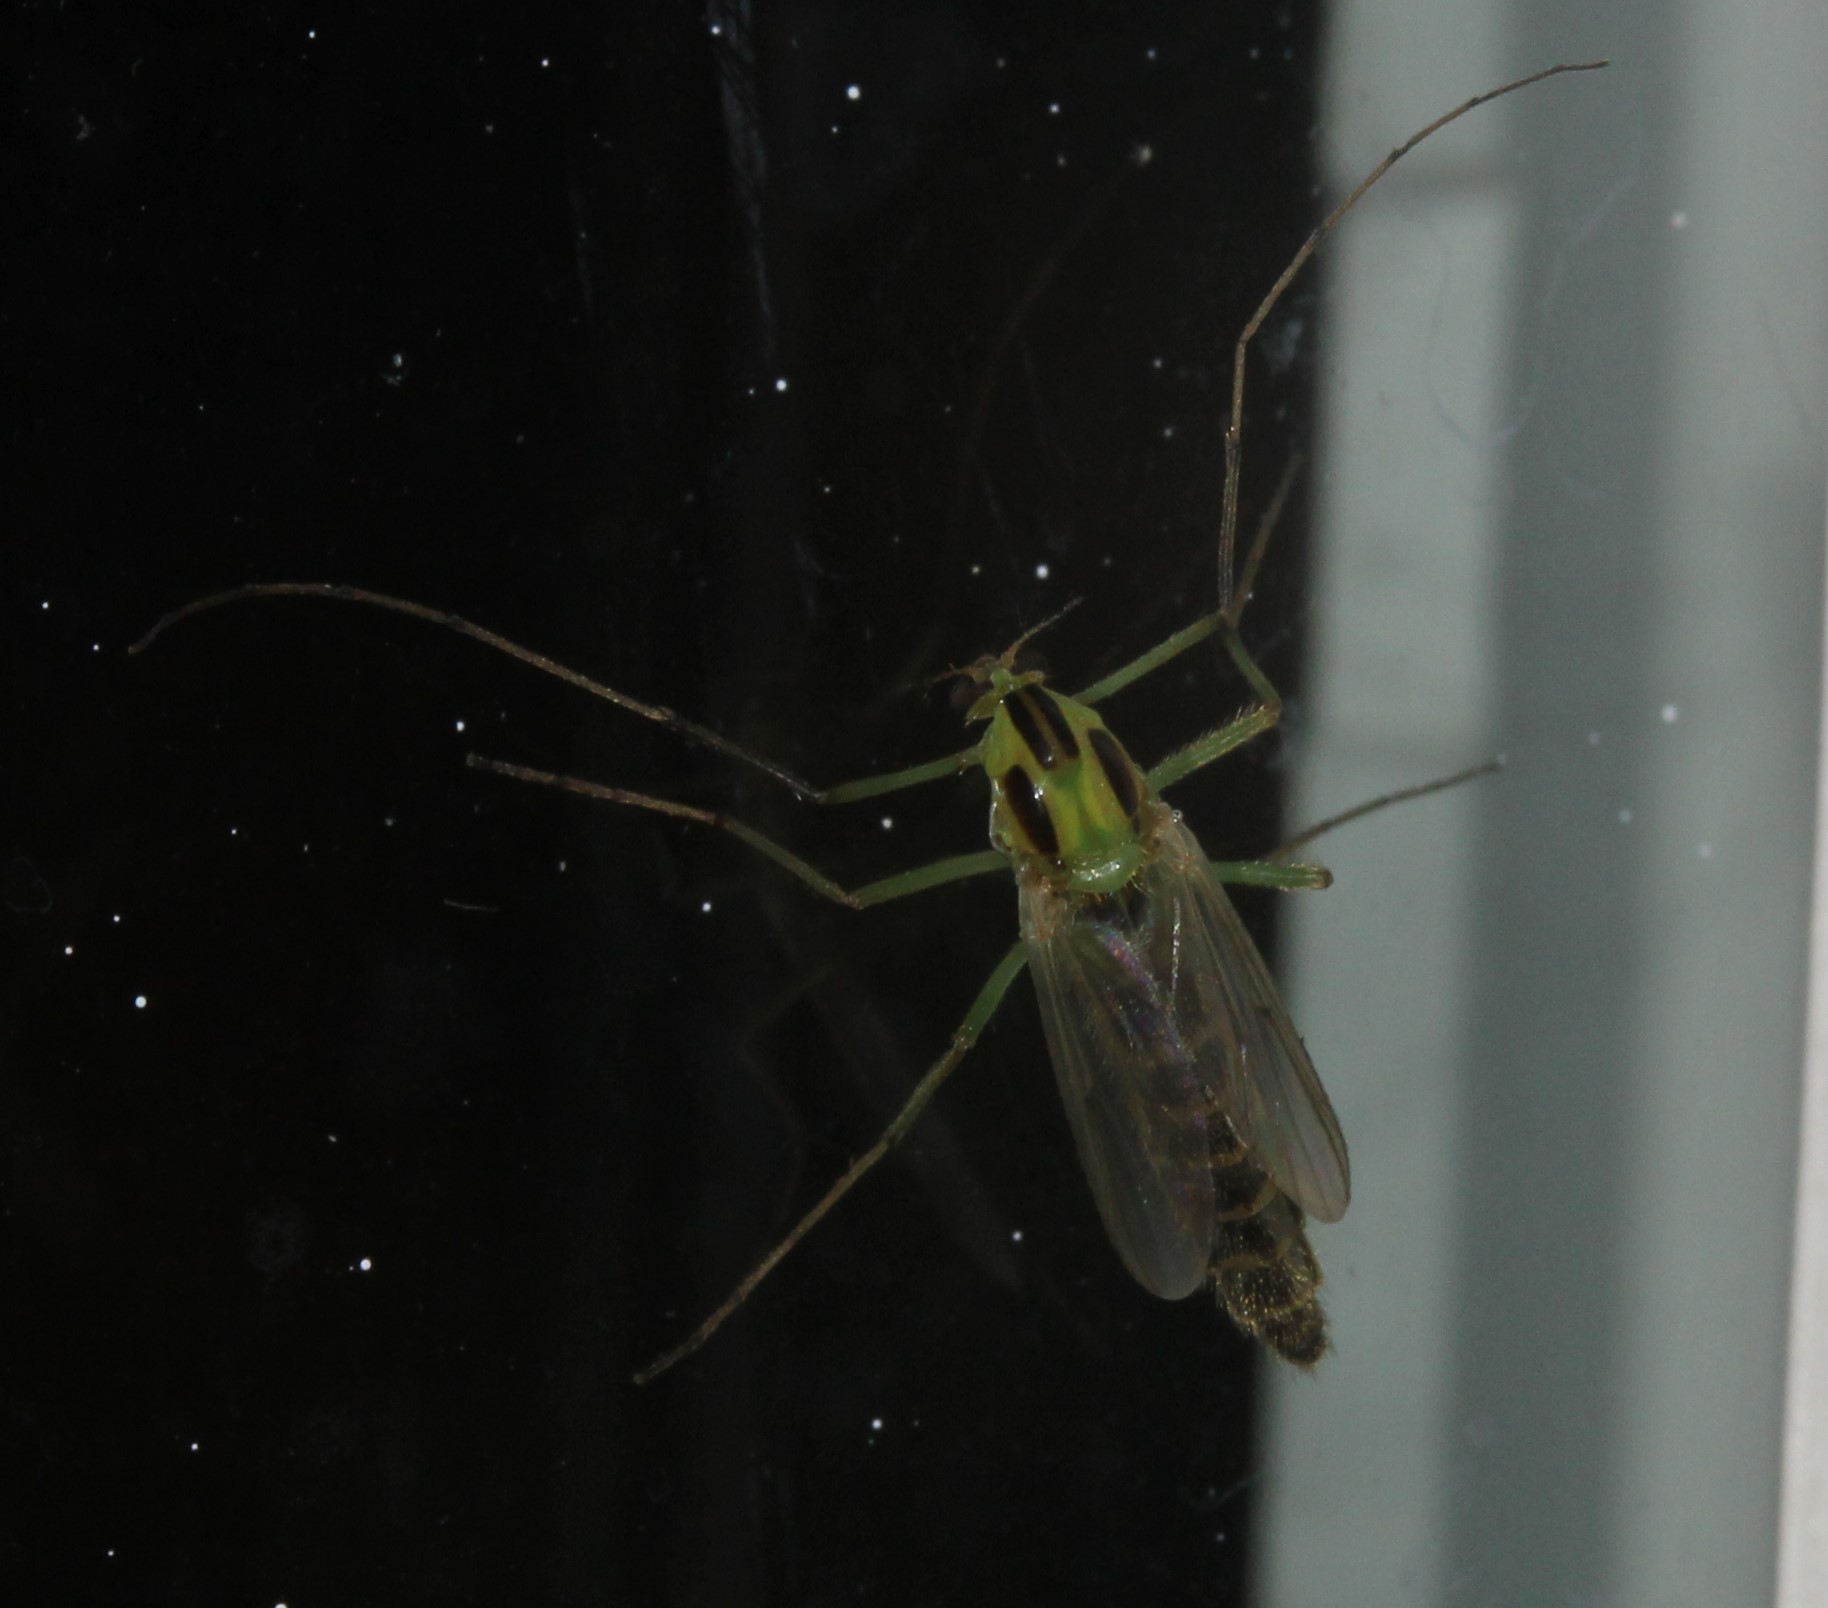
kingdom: Animalia
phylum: Arthropoda
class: Insecta
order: Diptera
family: Chironomidae
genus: Chironomus
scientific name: Chironomus atroviridis
